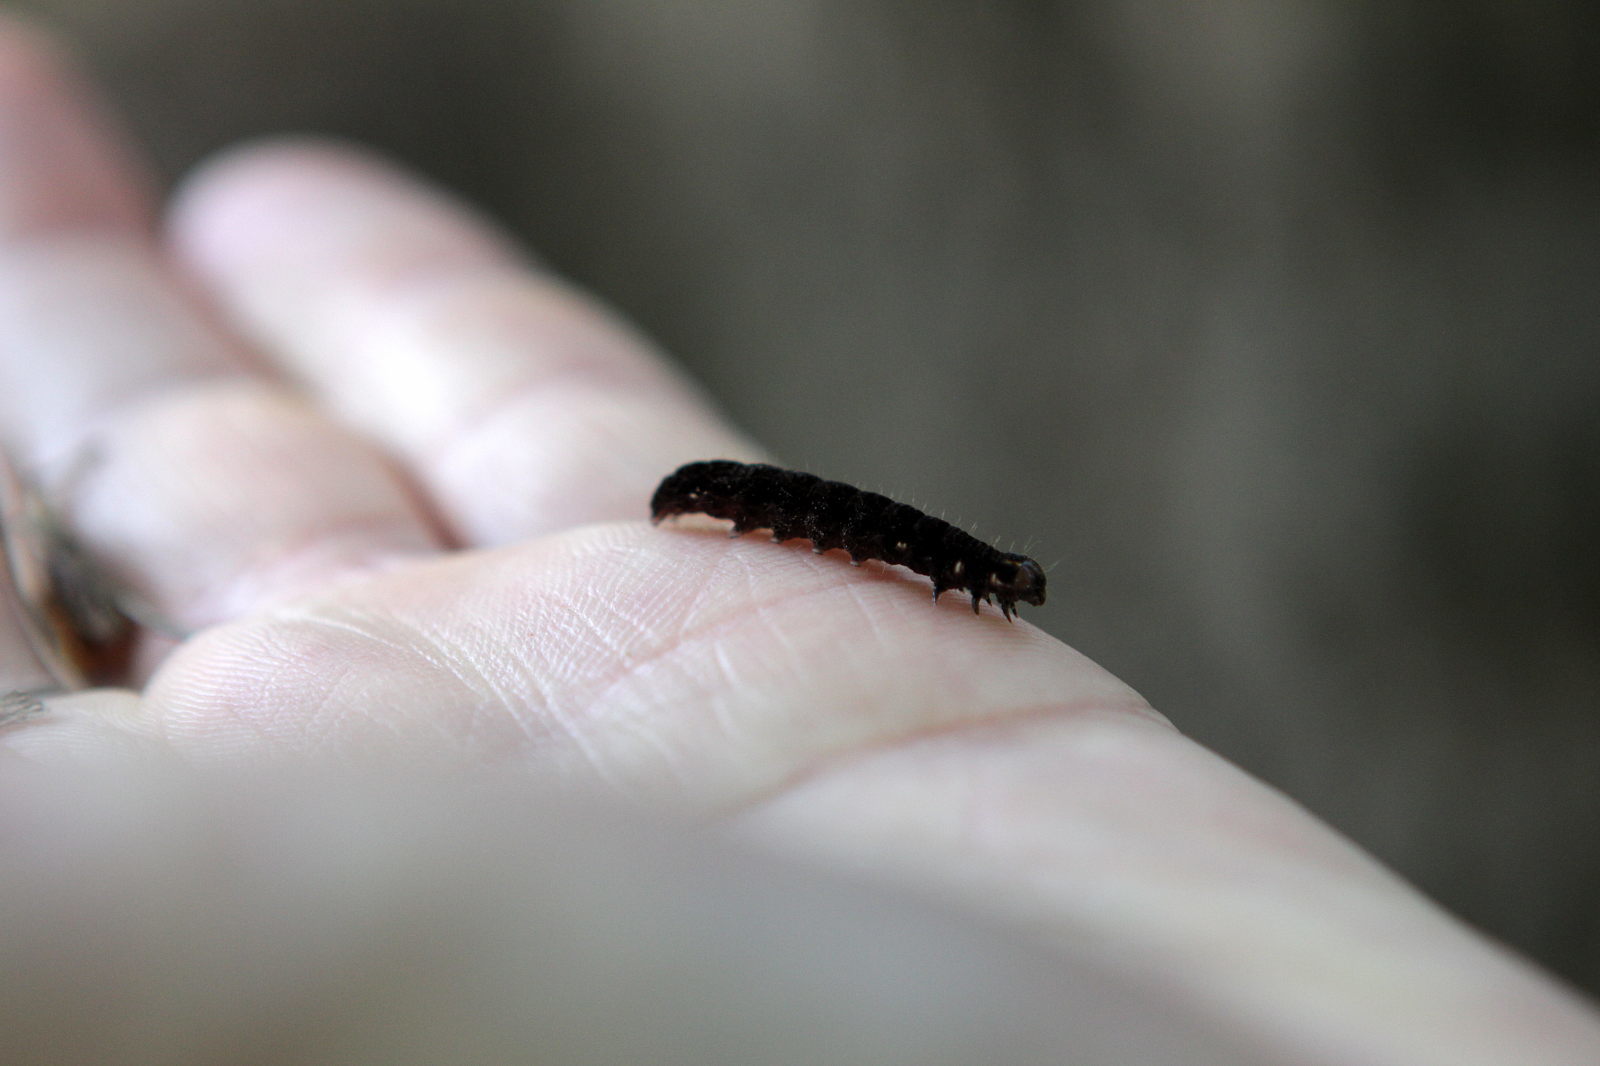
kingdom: Animalia
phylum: Arthropoda
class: Insecta
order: Lepidoptera
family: Noctuidae
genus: Eupsilia
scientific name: Eupsilia transversa
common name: Satellite
